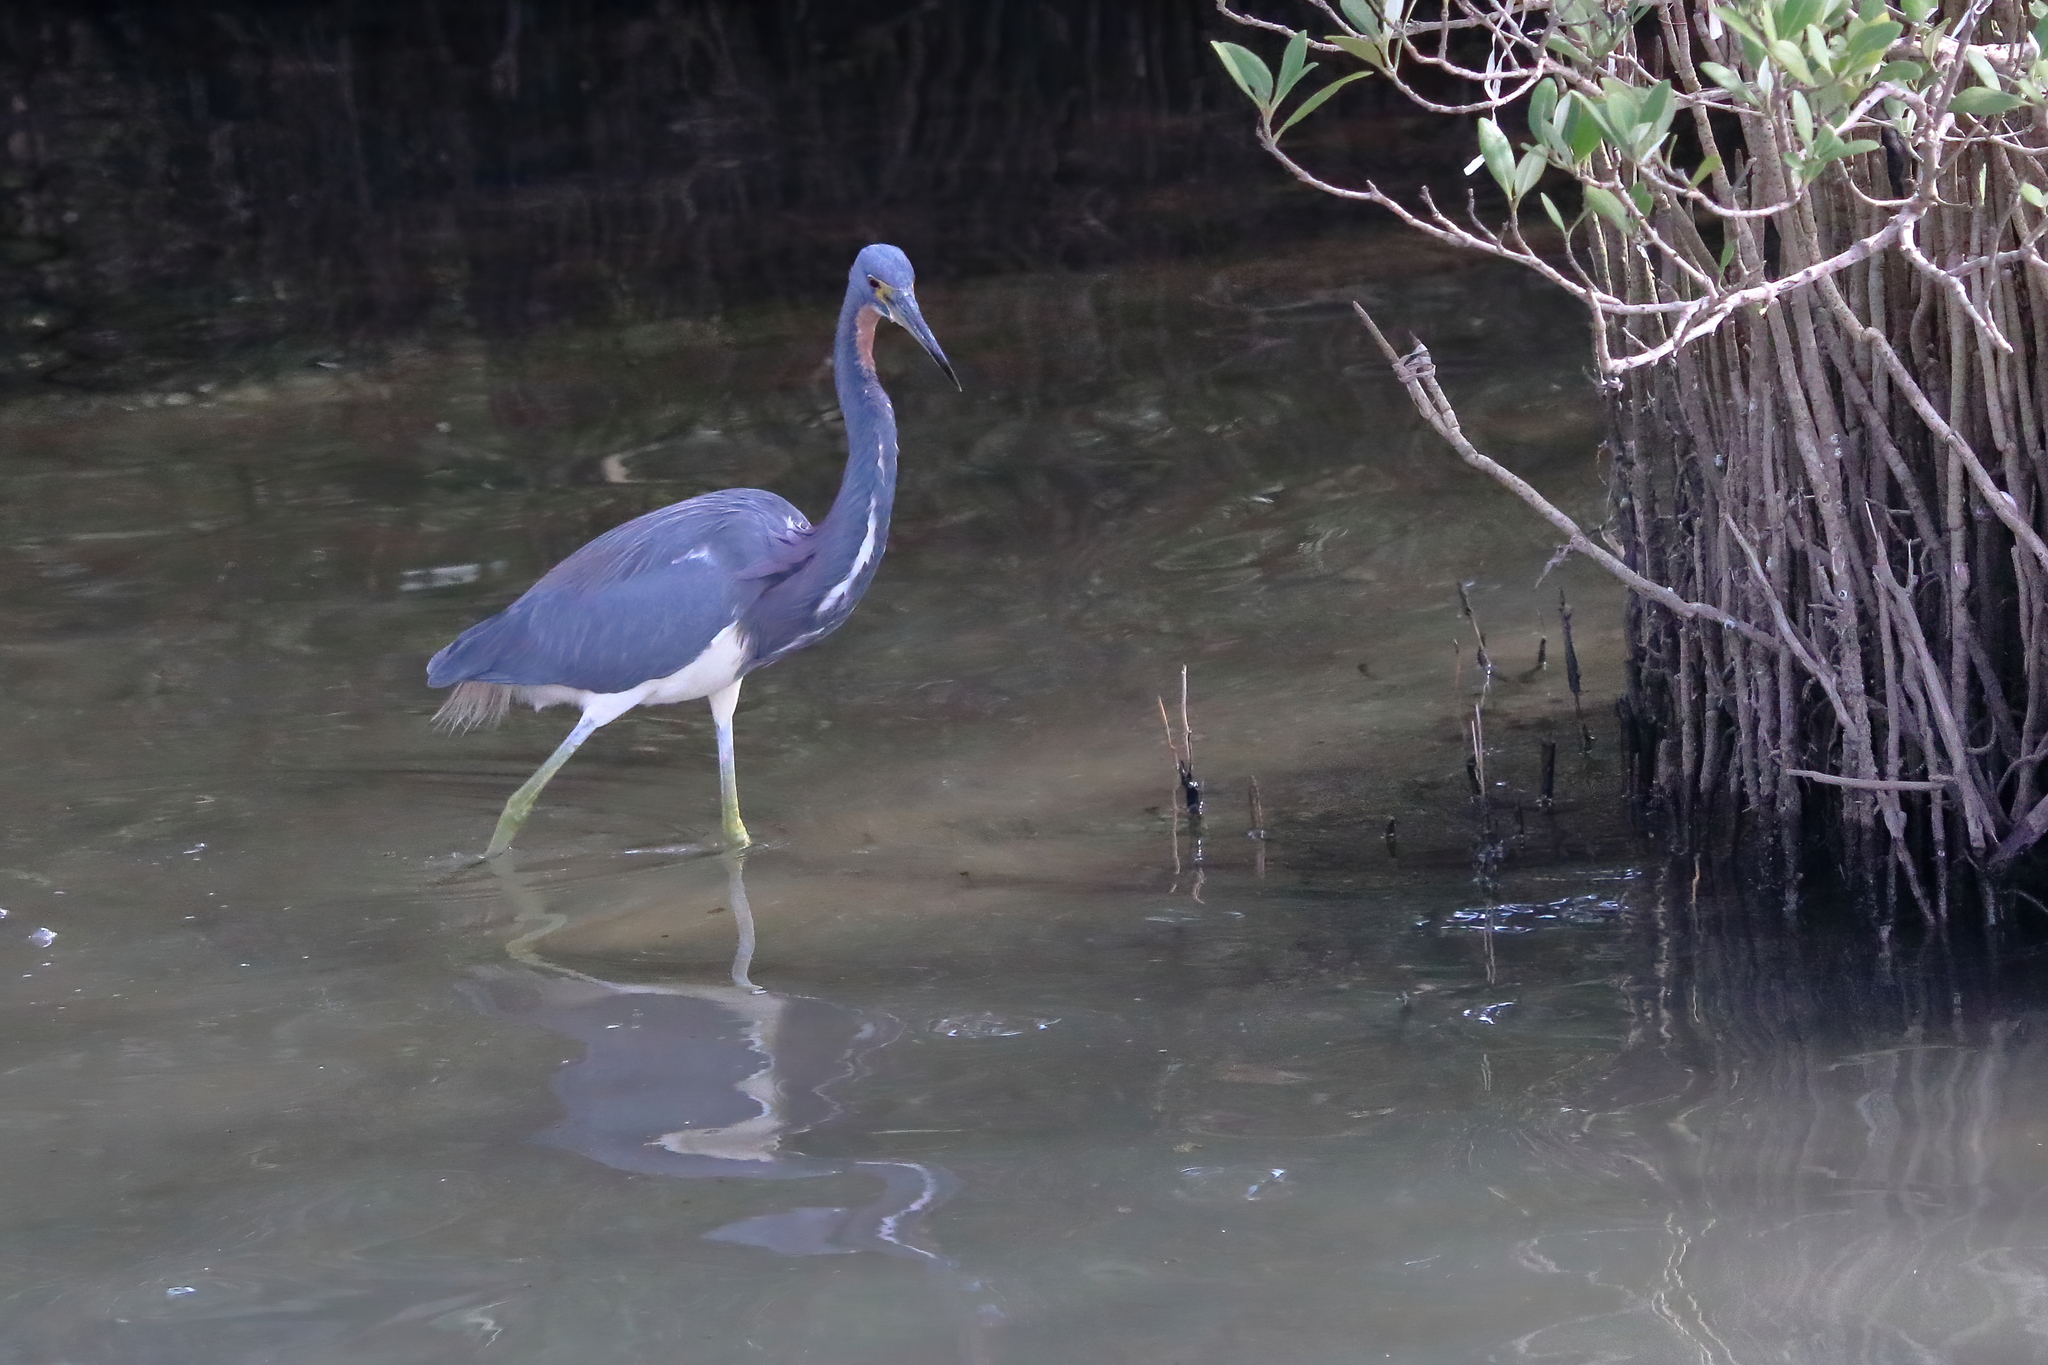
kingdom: Animalia
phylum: Chordata
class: Aves
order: Pelecaniformes
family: Ardeidae
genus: Egretta
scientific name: Egretta tricolor
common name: Tricolored heron
